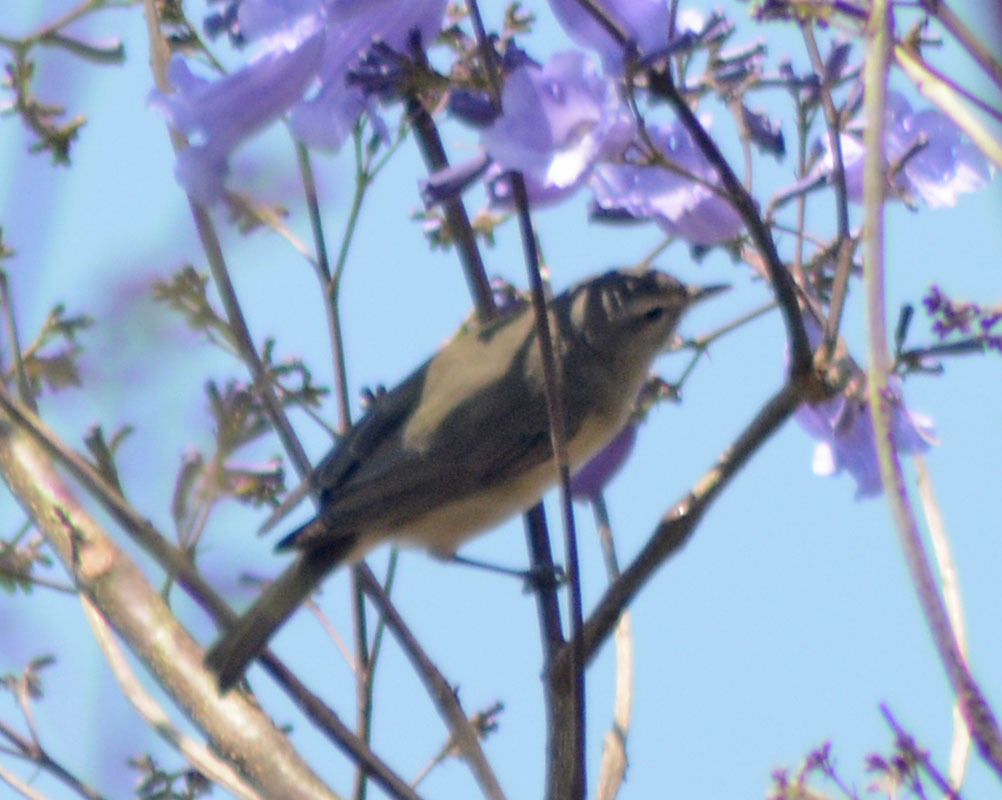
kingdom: Animalia
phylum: Chordata
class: Aves
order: Passeriformes
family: Vireonidae
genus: Vireo
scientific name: Vireo gilvus
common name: Warbling vireo
